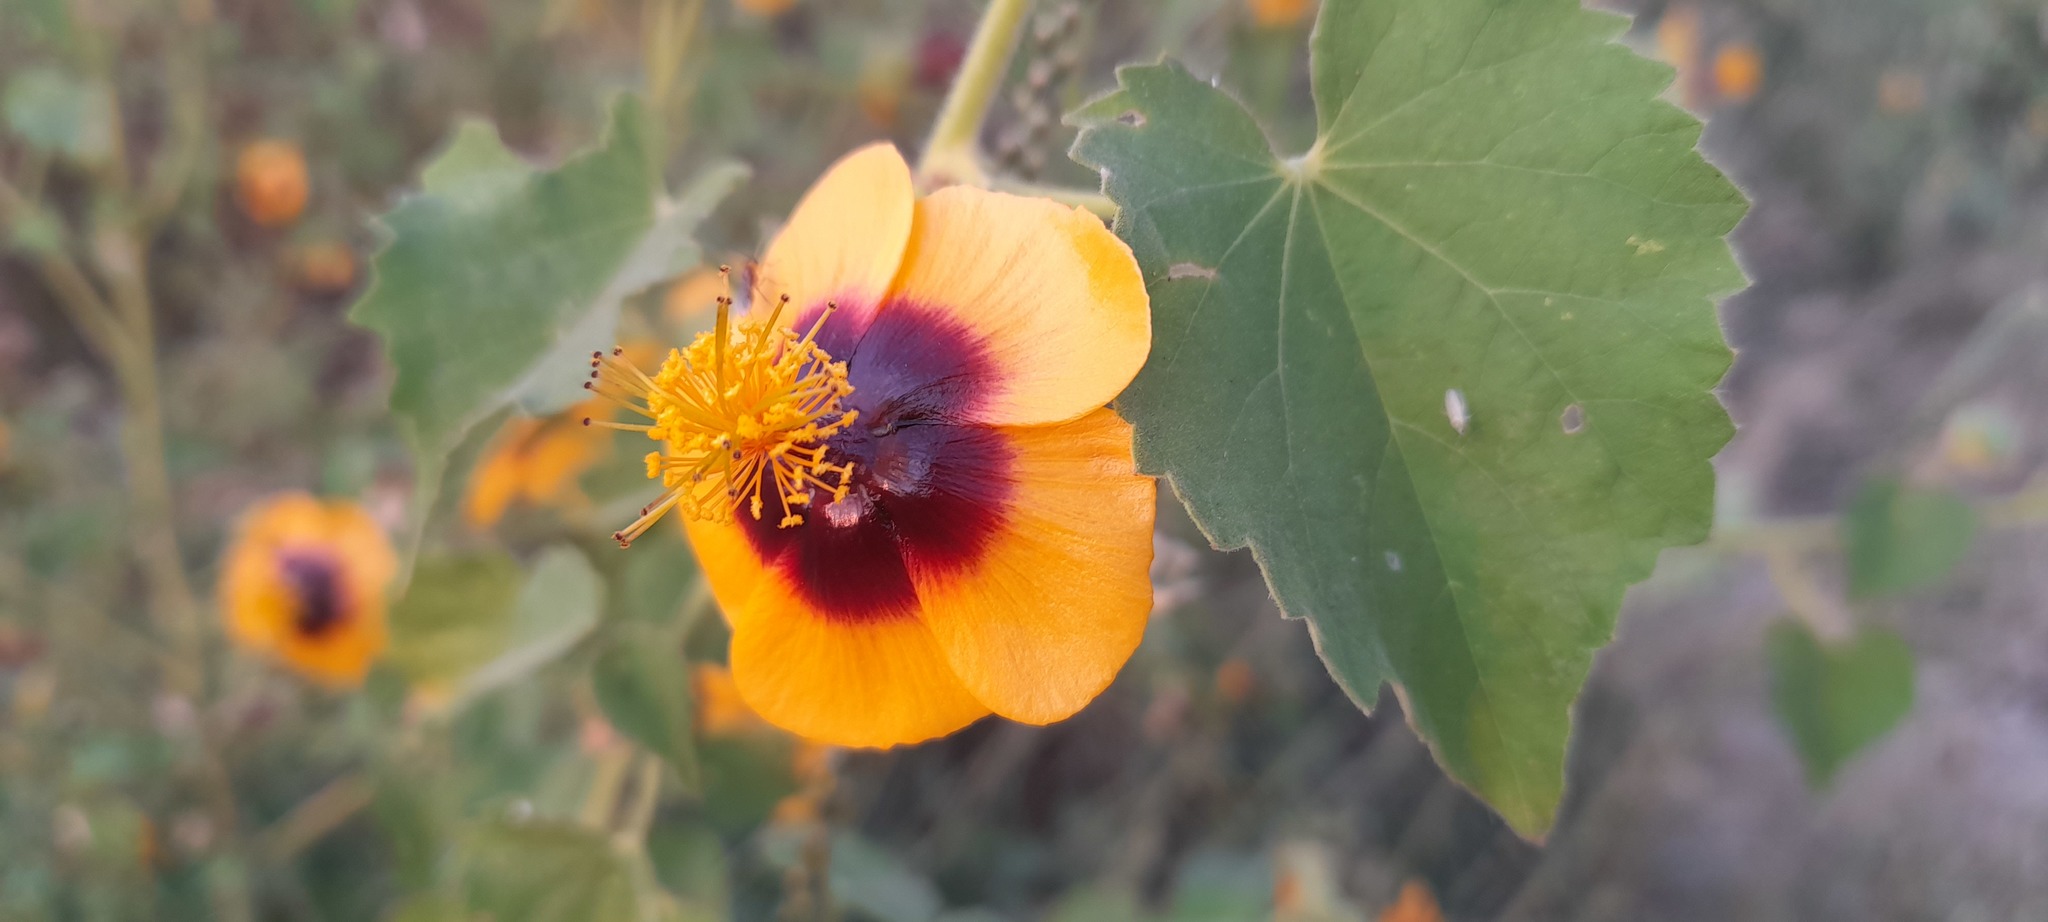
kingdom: Plantae
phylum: Tracheophyta
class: Magnoliopsida
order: Malvales
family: Malvaceae
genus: Abutilon
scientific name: Abutilon hirtum
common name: Florida keys indian mallow
